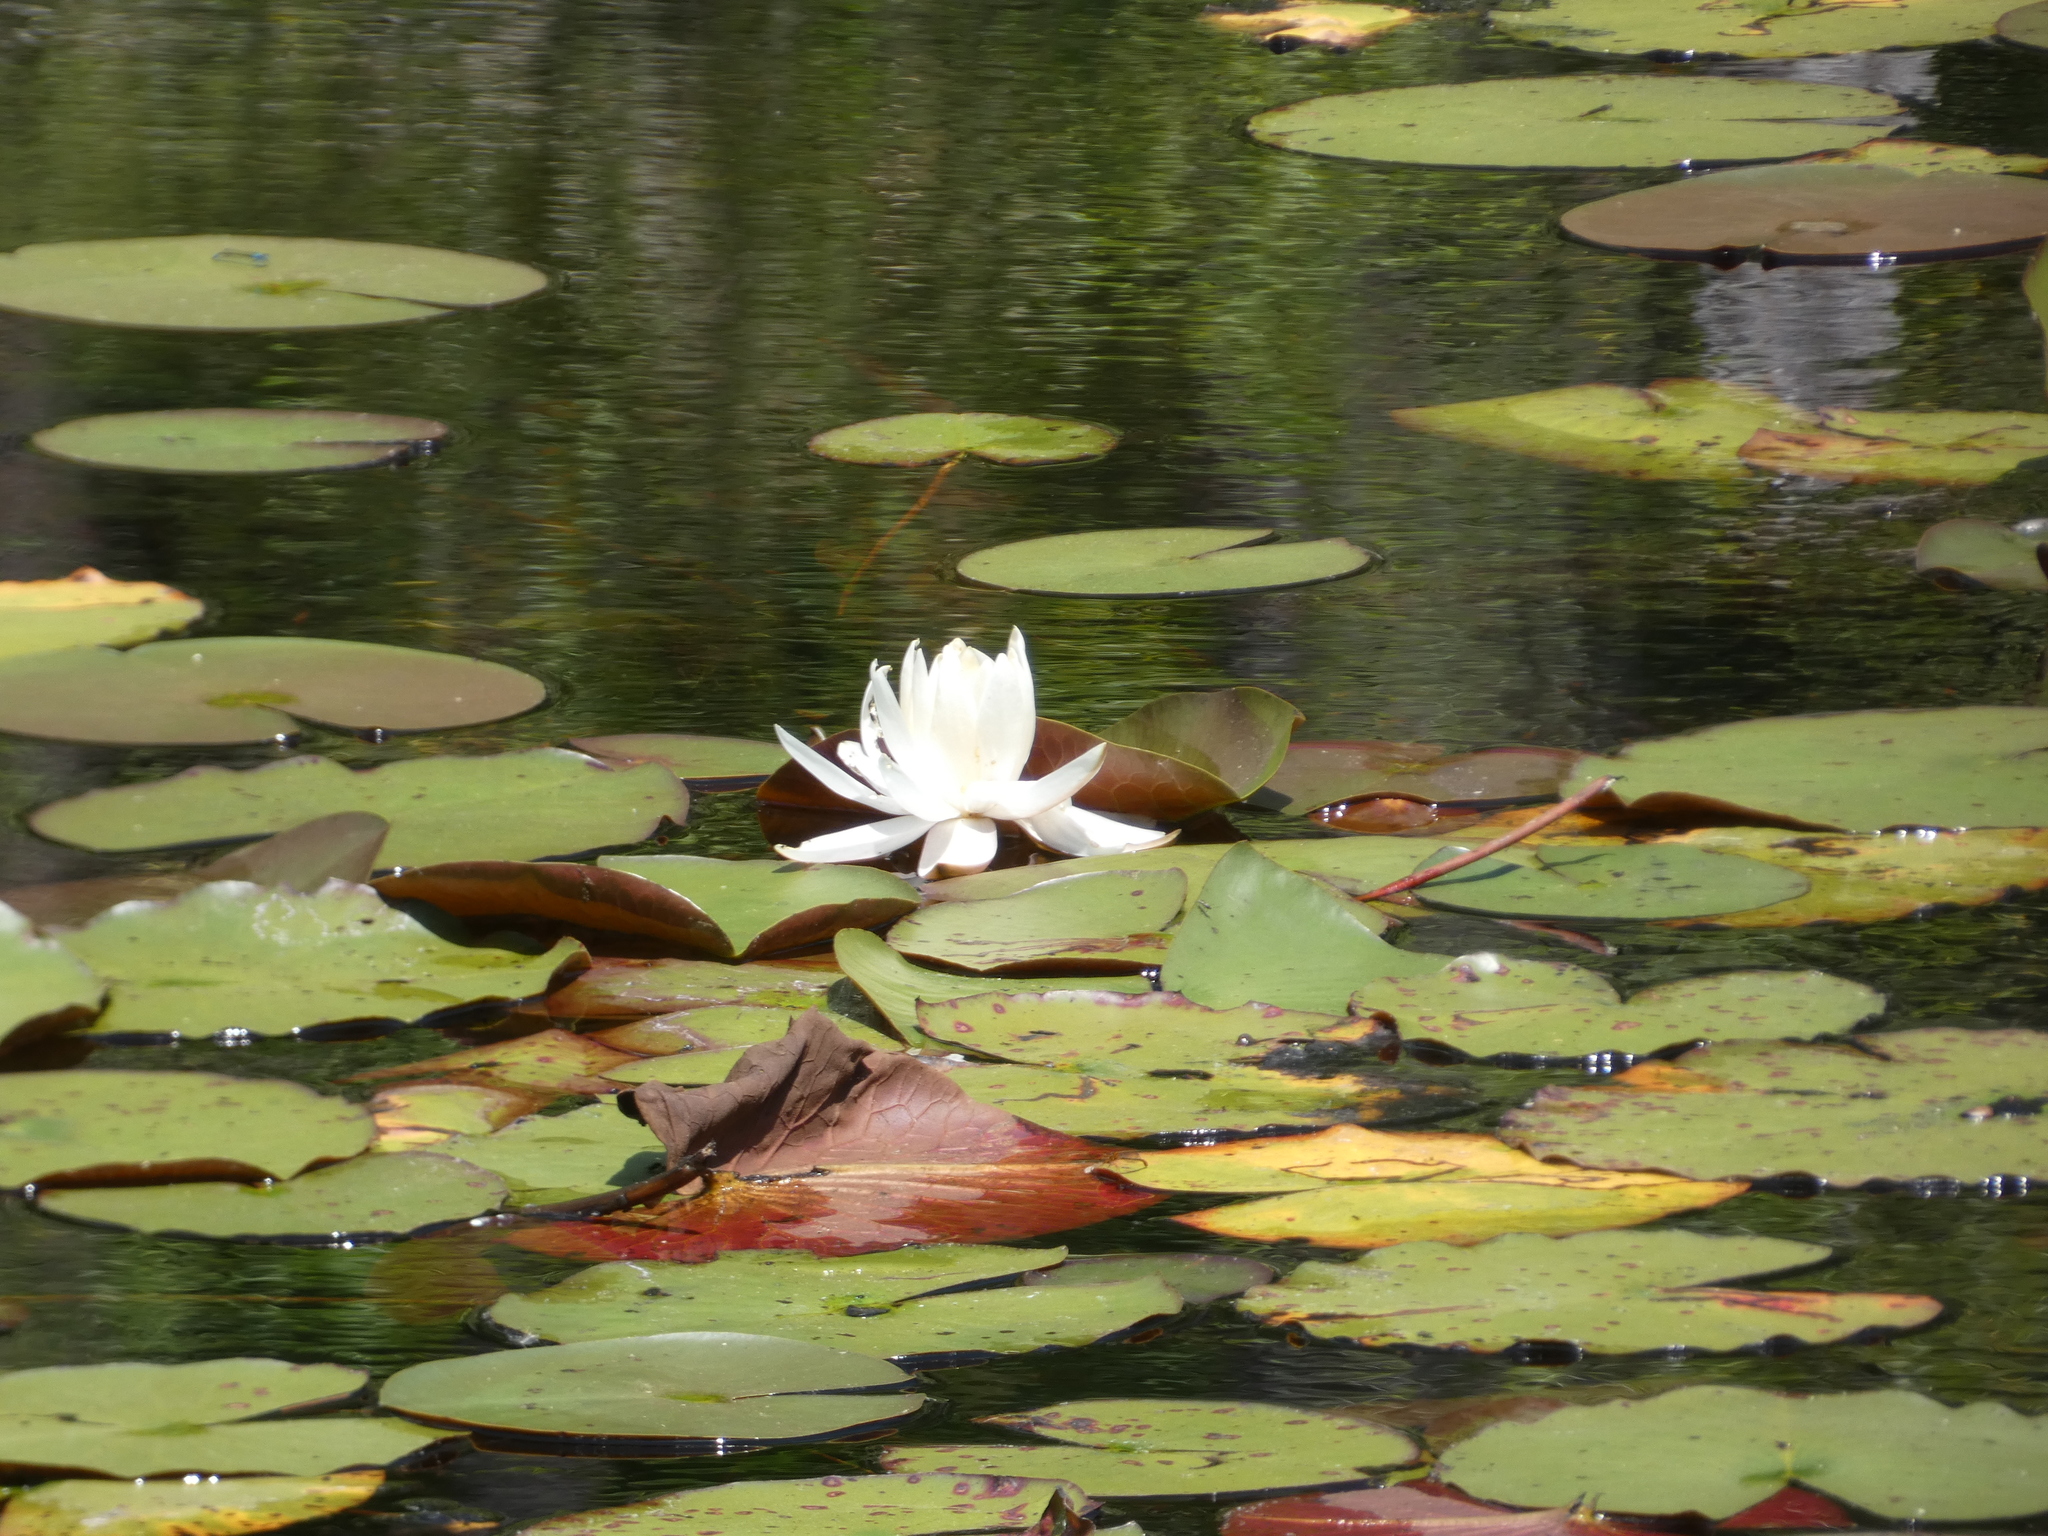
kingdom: Plantae
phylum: Tracheophyta
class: Magnoliopsida
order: Nymphaeales
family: Nymphaeaceae
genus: Nymphaea
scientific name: Nymphaea odorata
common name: Fragrant water-lily
